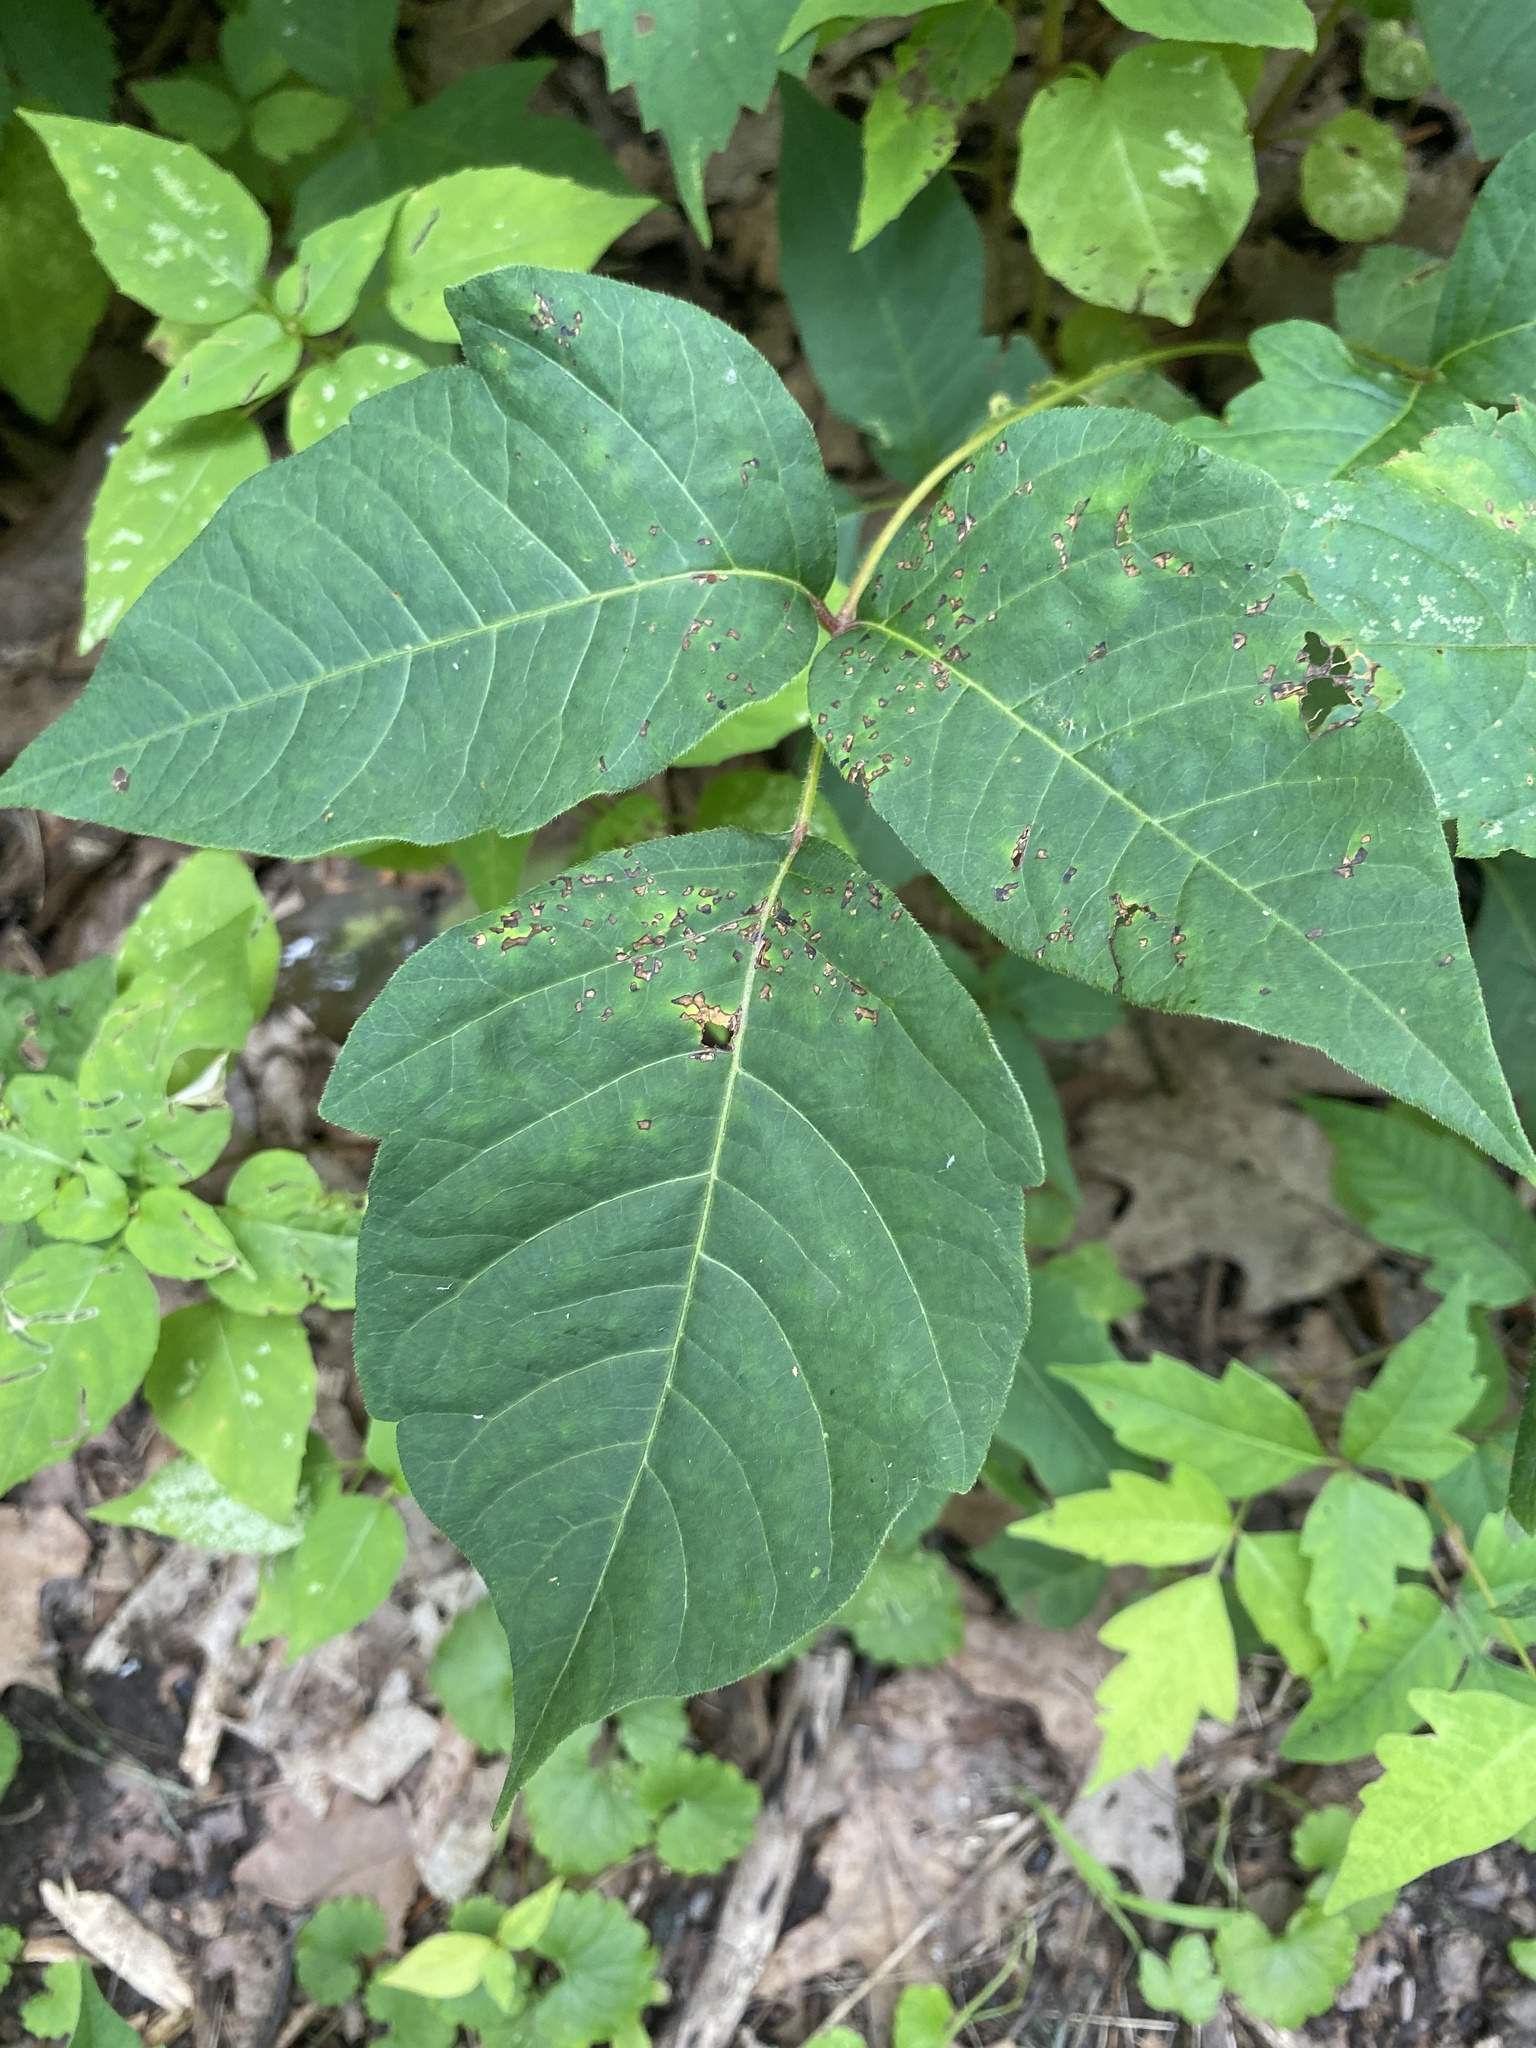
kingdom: Plantae
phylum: Tracheophyta
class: Magnoliopsida
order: Sapindales
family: Anacardiaceae
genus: Toxicodendron
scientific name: Toxicodendron radicans
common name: Poison ivy
